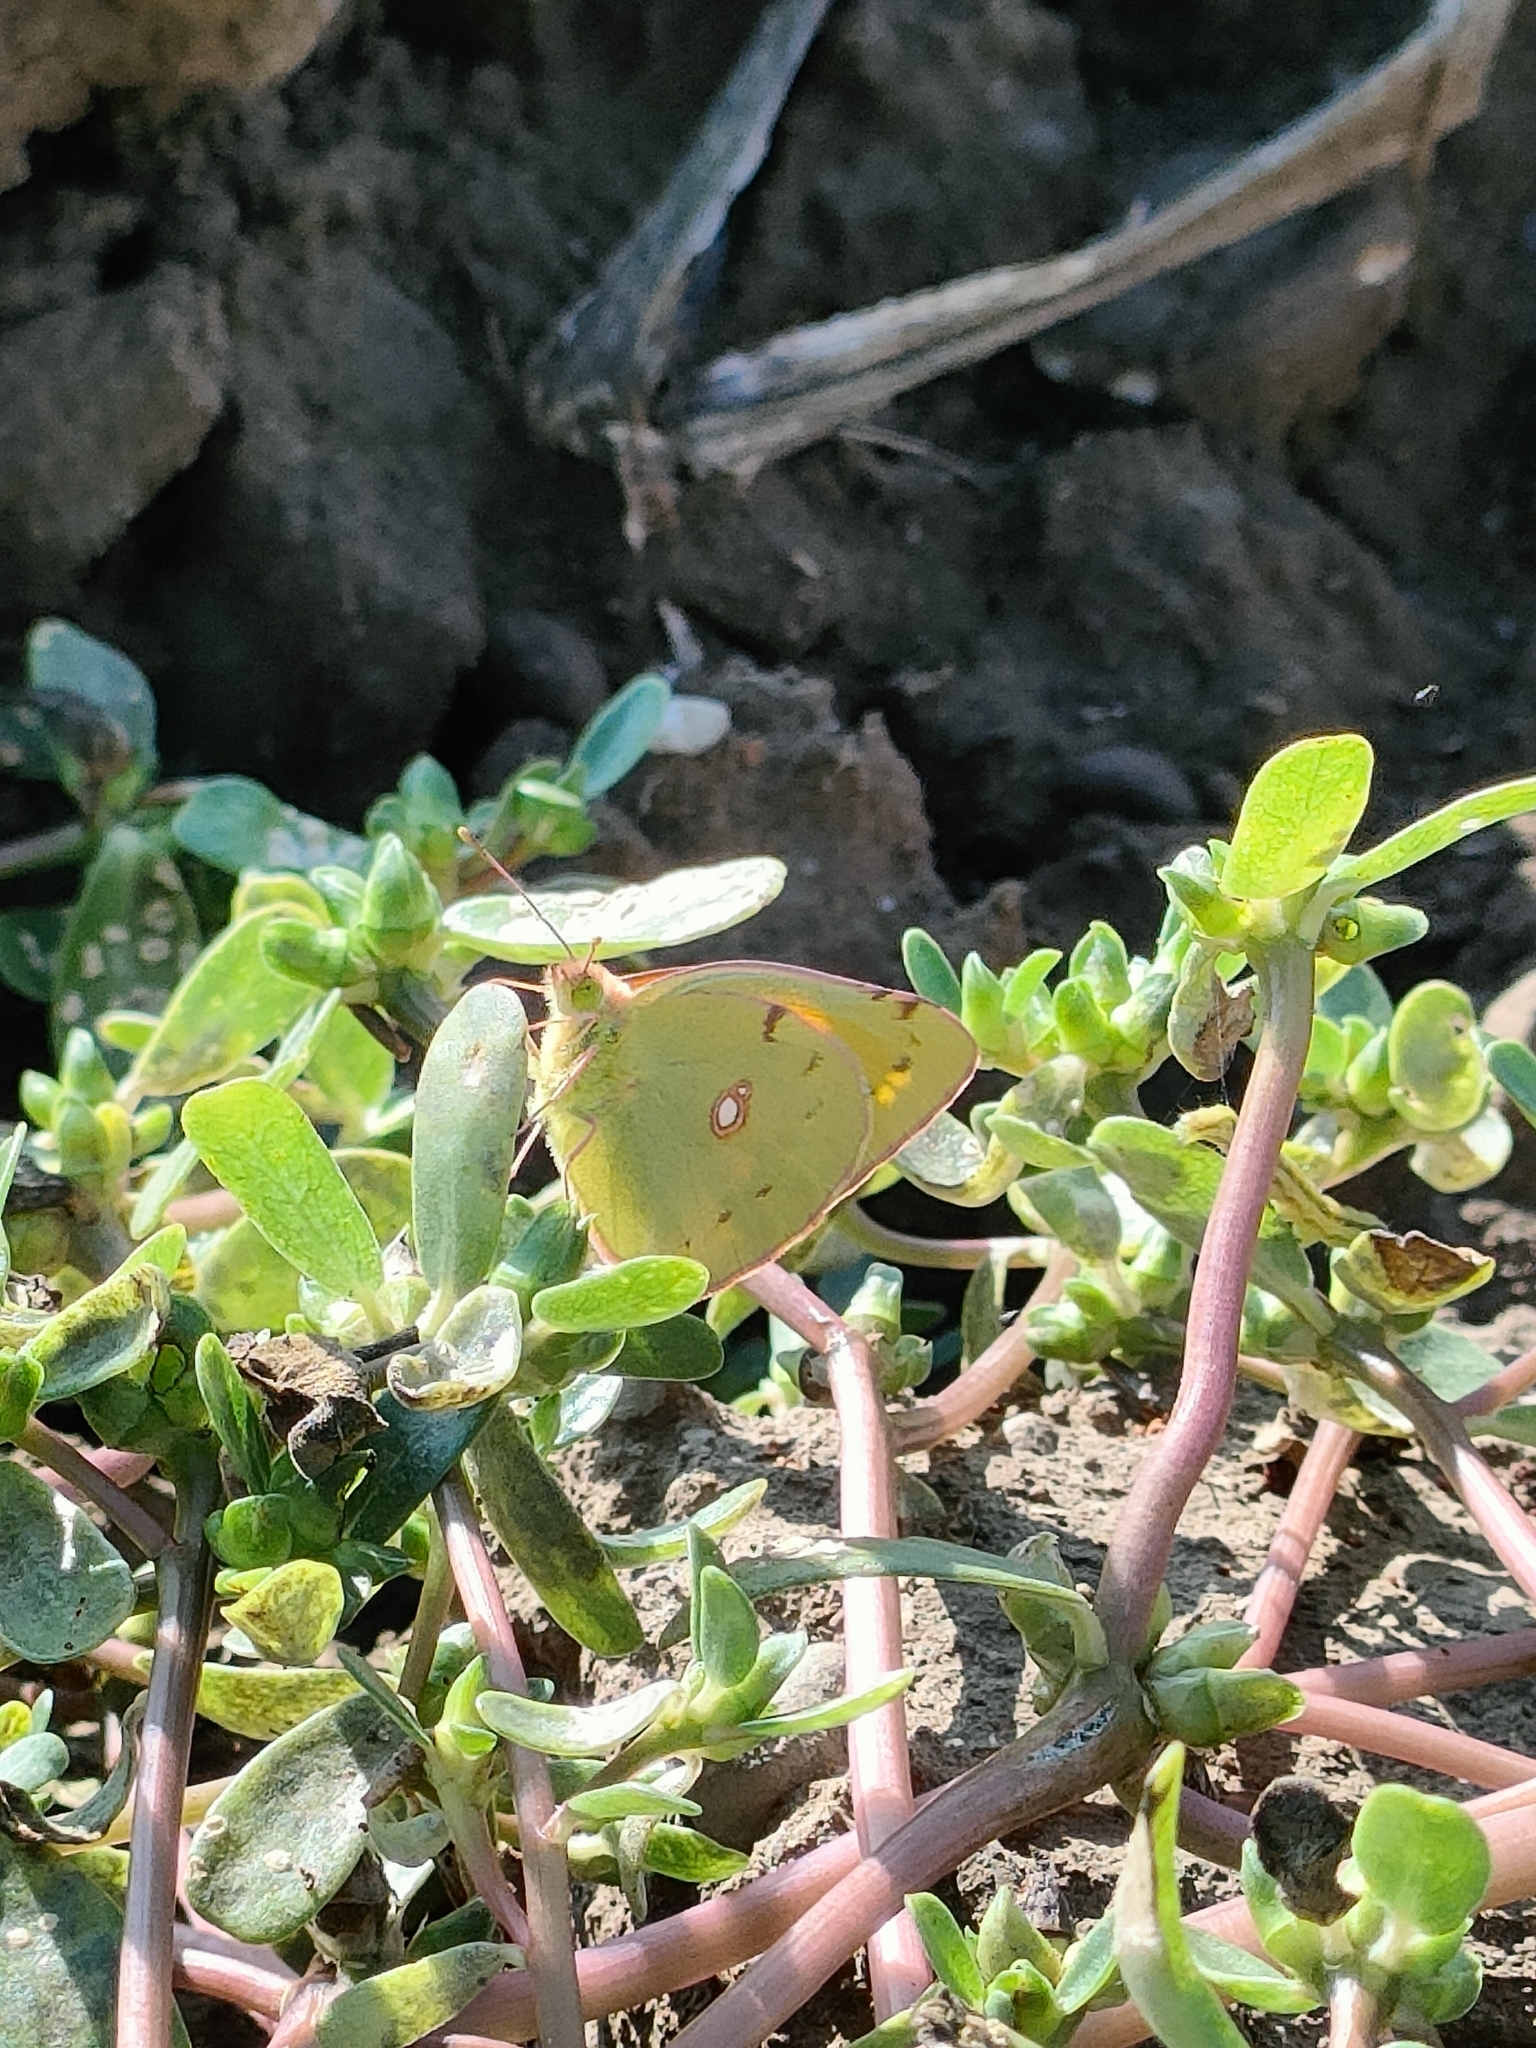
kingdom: Animalia
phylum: Arthropoda
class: Insecta
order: Lepidoptera
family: Pieridae
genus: Colias
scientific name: Colias croceus
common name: Clouded yellow
